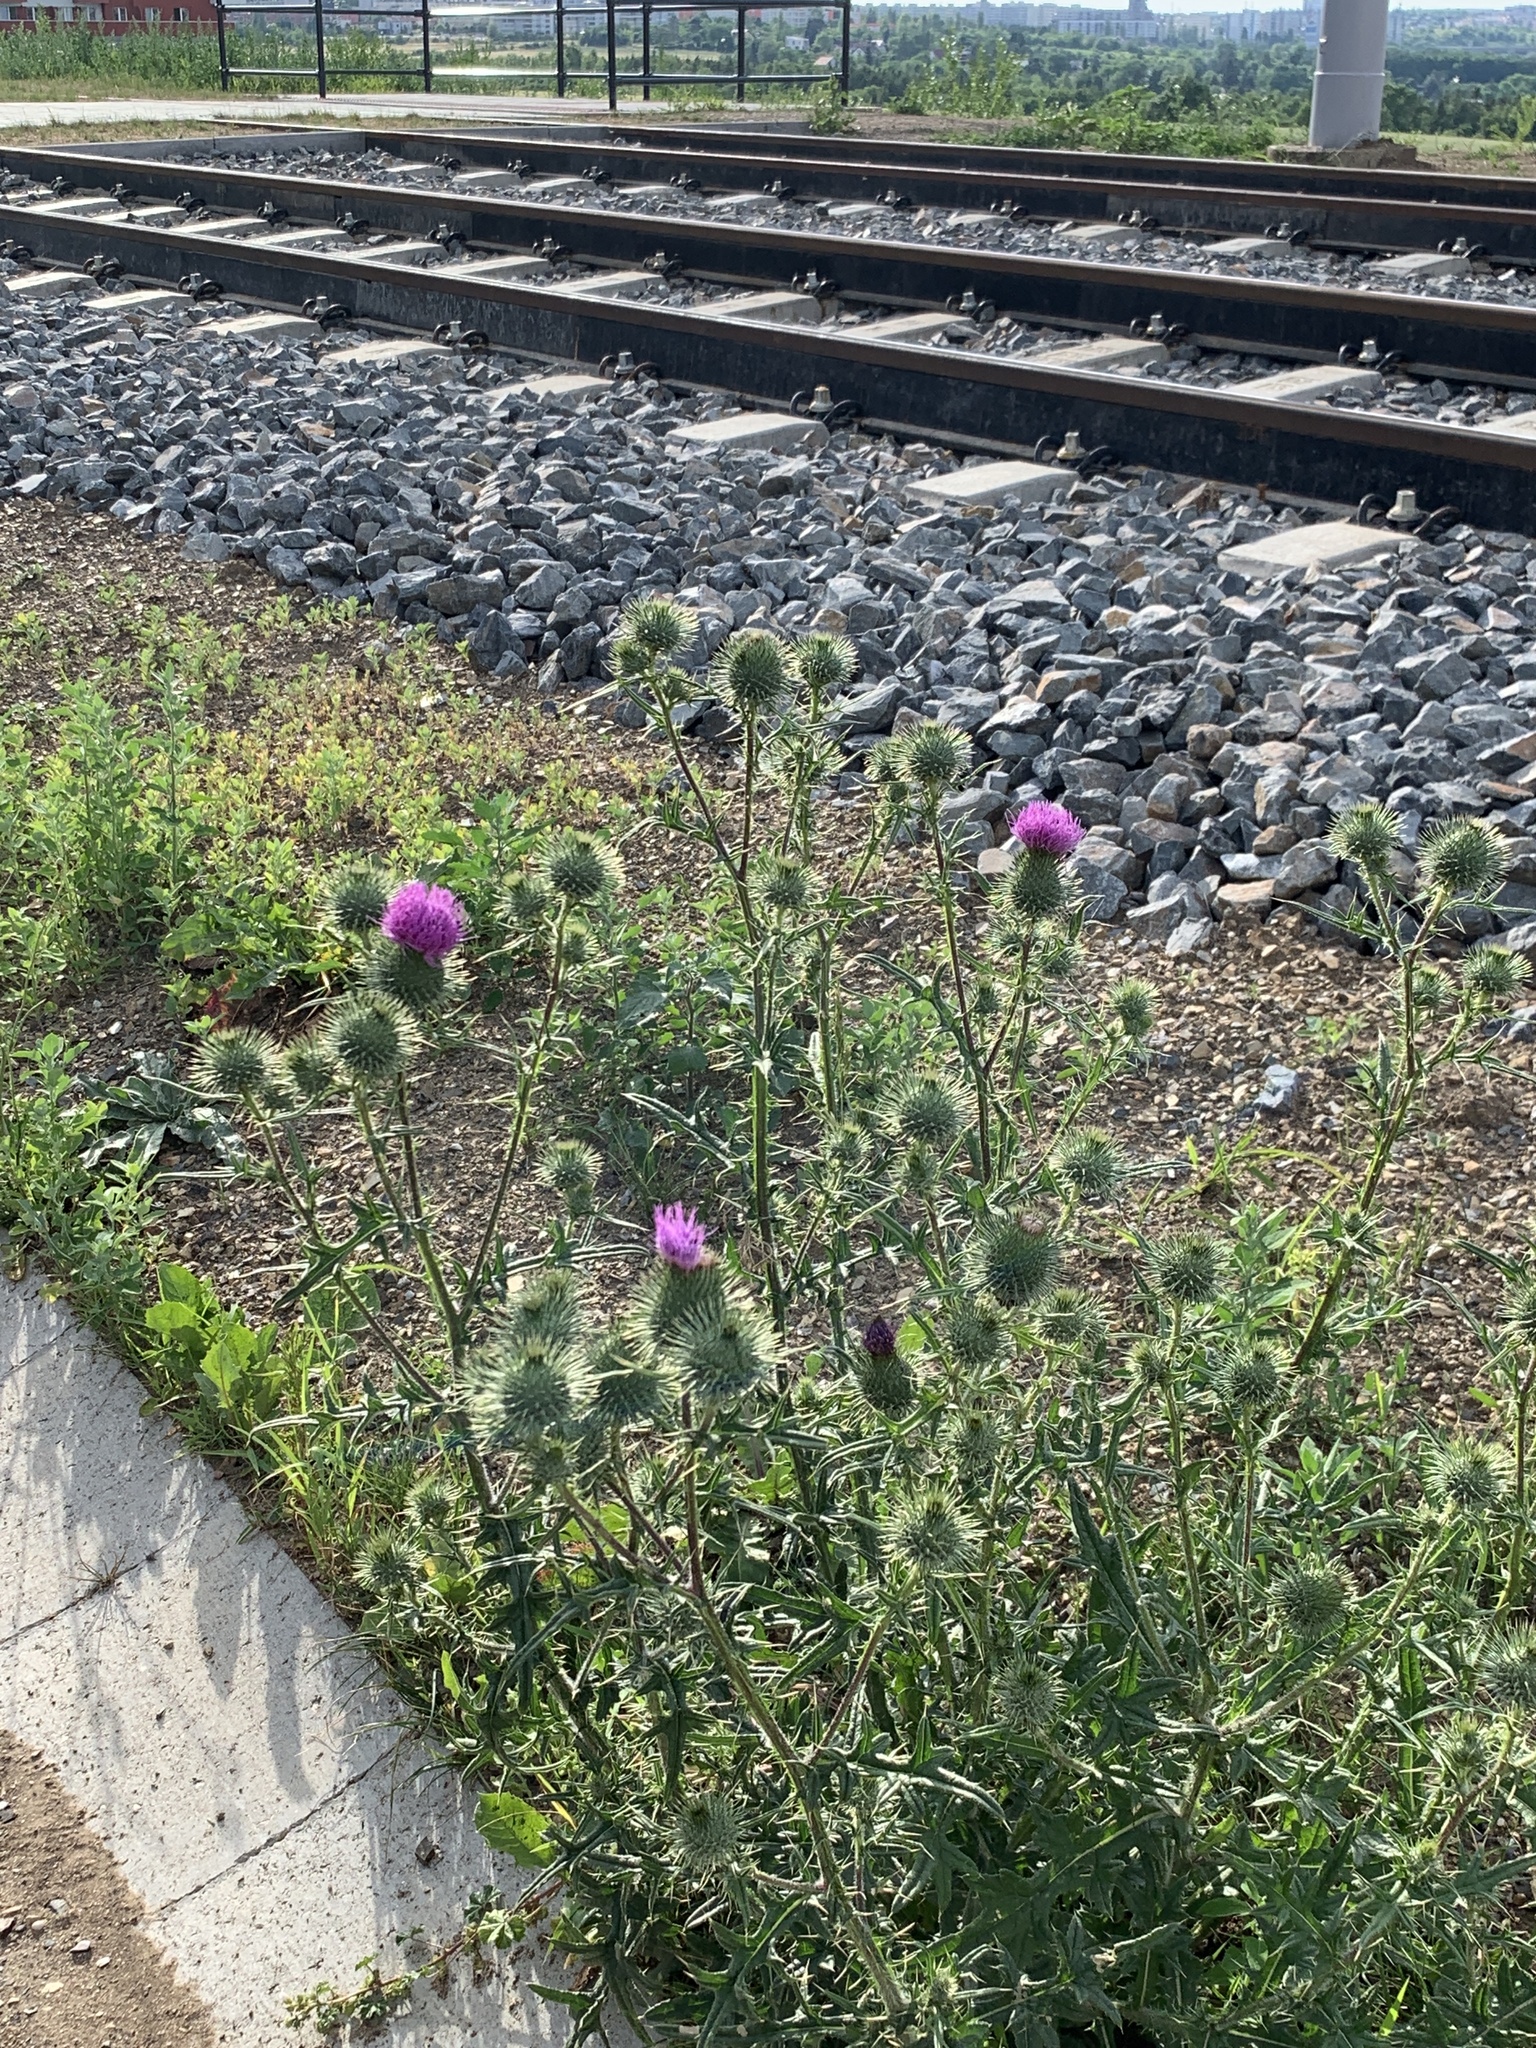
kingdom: Plantae
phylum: Tracheophyta
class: Magnoliopsida
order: Asterales
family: Asteraceae
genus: Cirsium
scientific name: Cirsium vulgare
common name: Bull thistle
